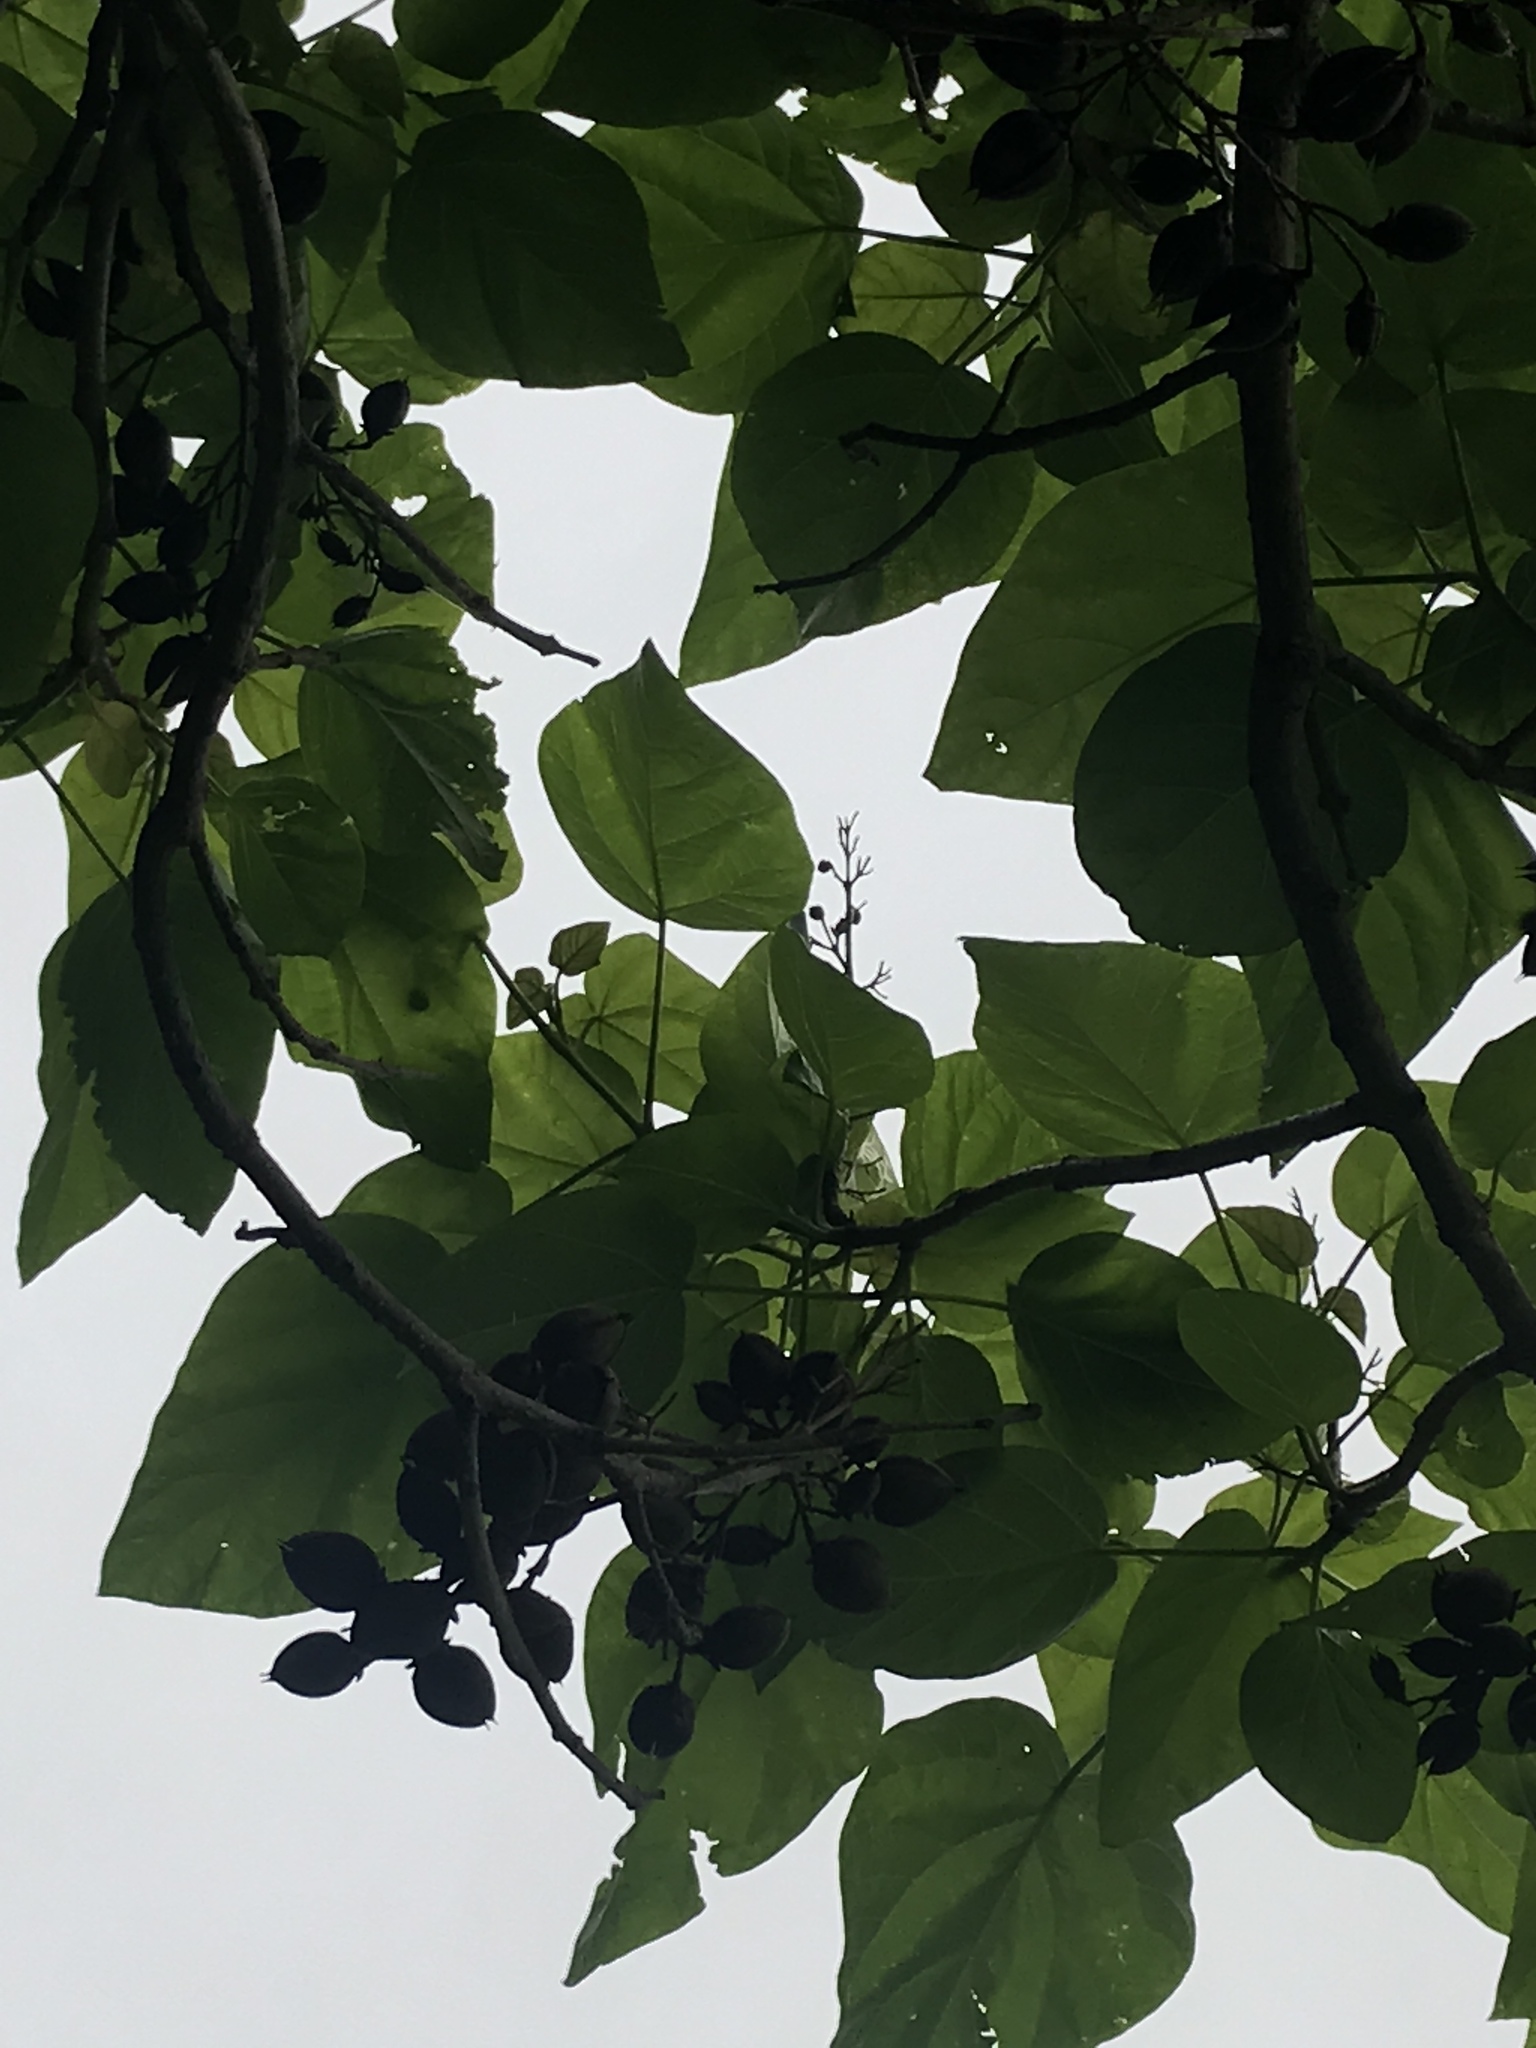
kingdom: Plantae
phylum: Tracheophyta
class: Magnoliopsida
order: Lamiales
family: Paulowniaceae
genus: Paulownia
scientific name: Paulownia tomentosa
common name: Foxglove-tree
